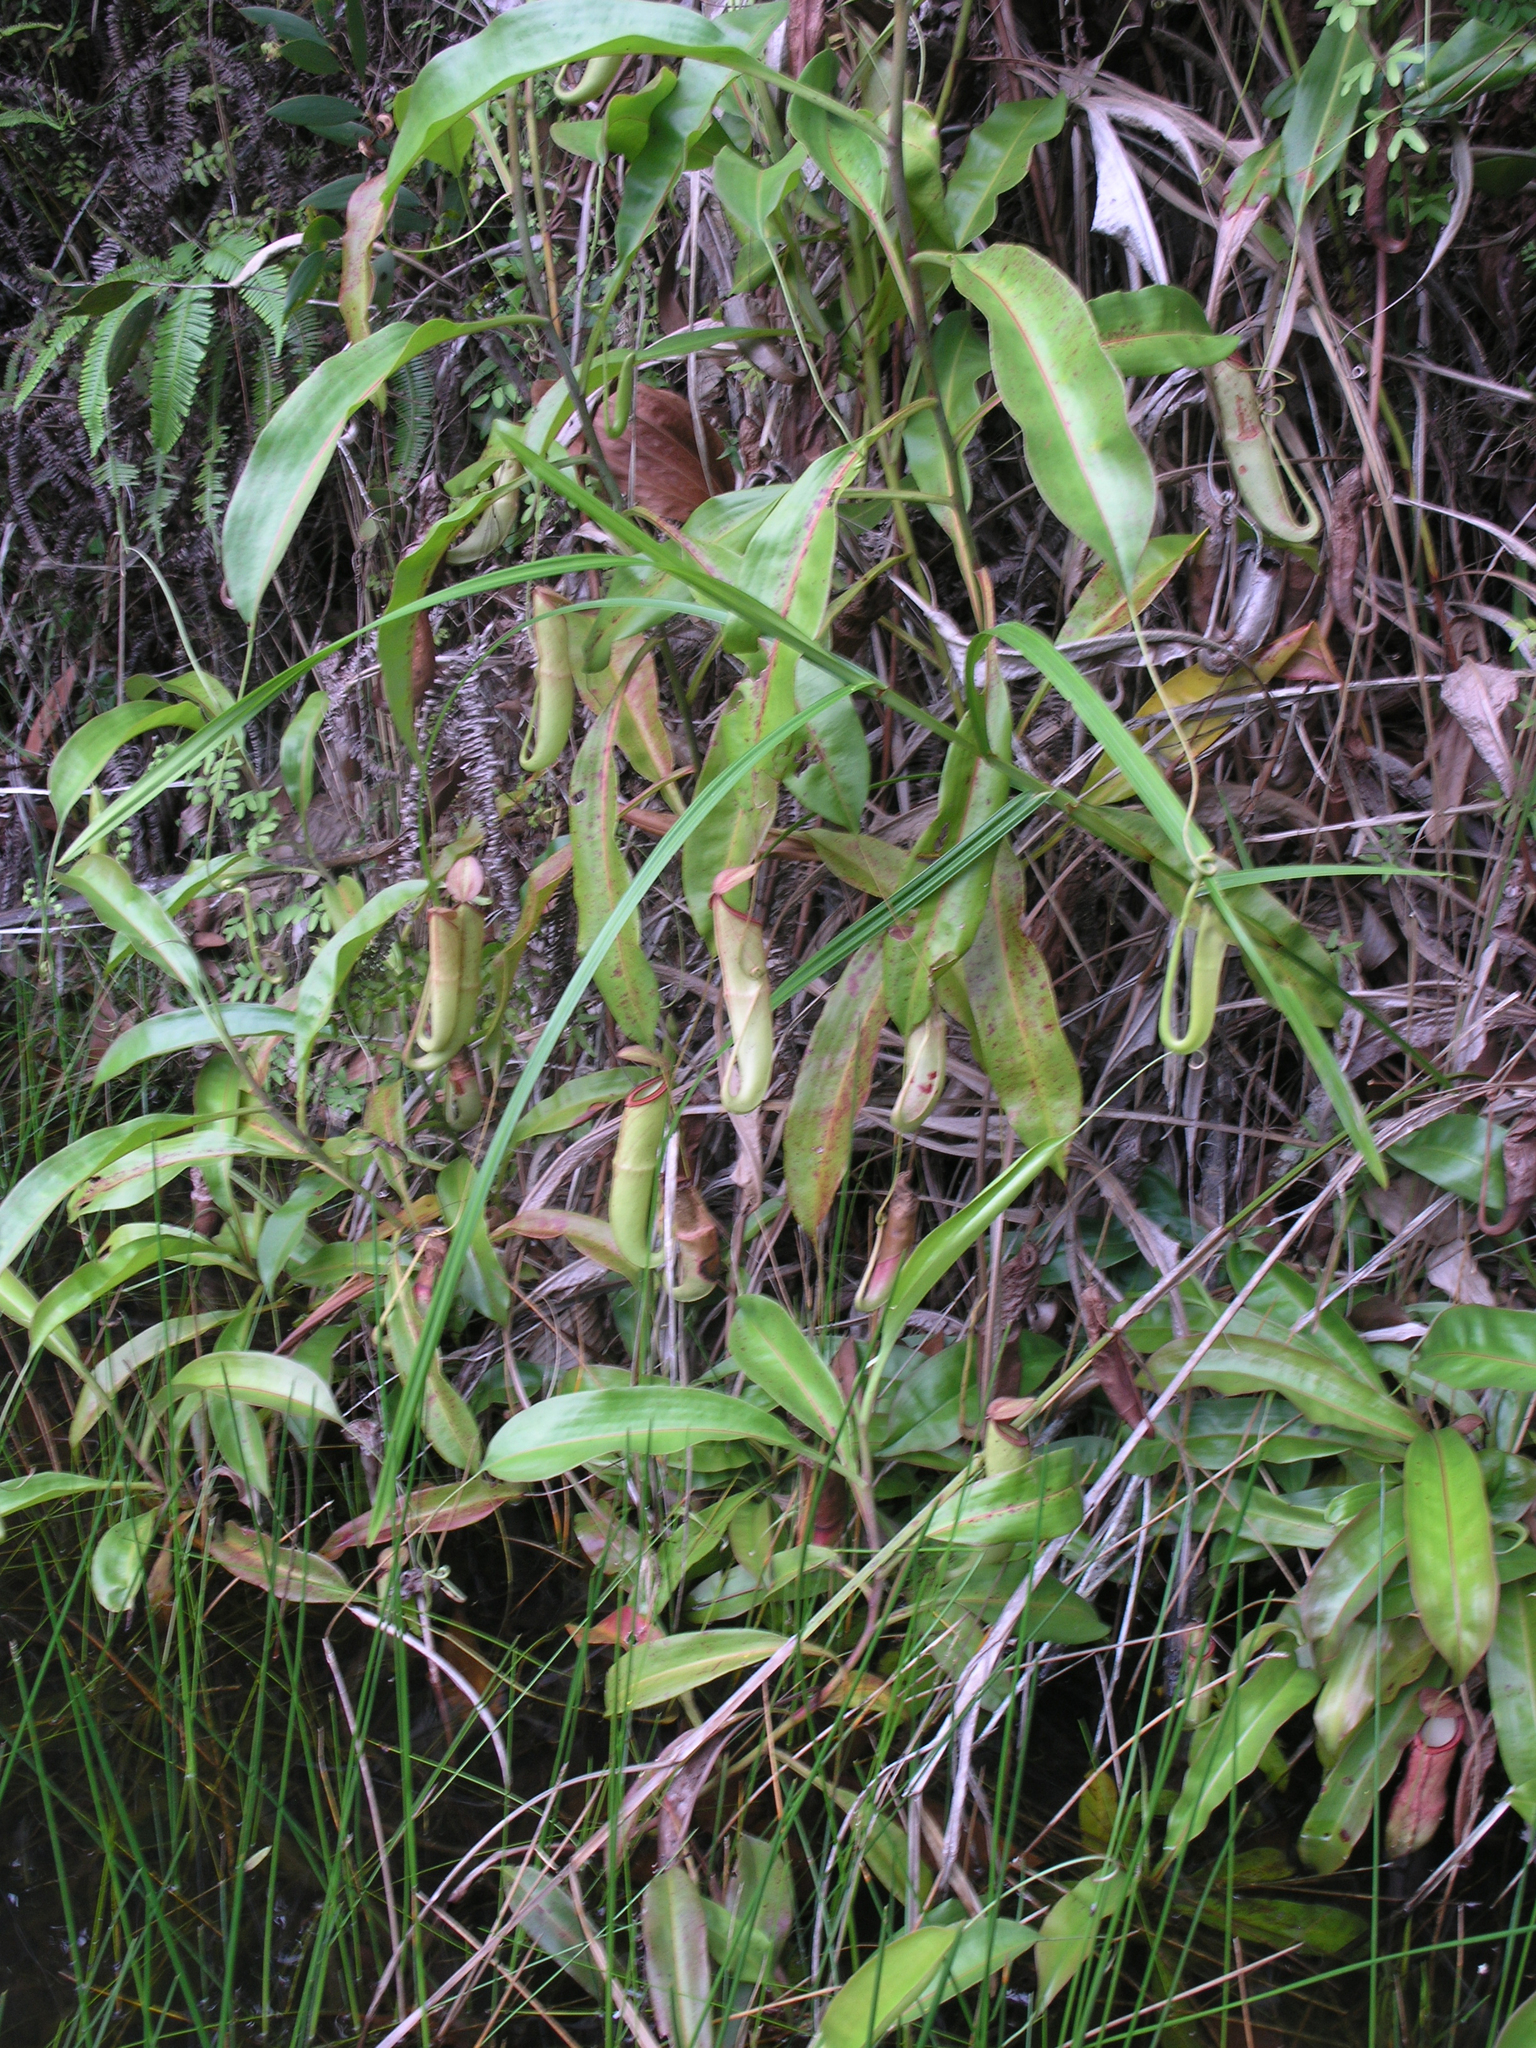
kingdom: Plantae
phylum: Tracheophyta
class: Magnoliopsida
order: Caryophyllales
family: Nepenthaceae
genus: Nepenthes
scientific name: Nepenthes mirabilis
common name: Tropical pitcherplant
